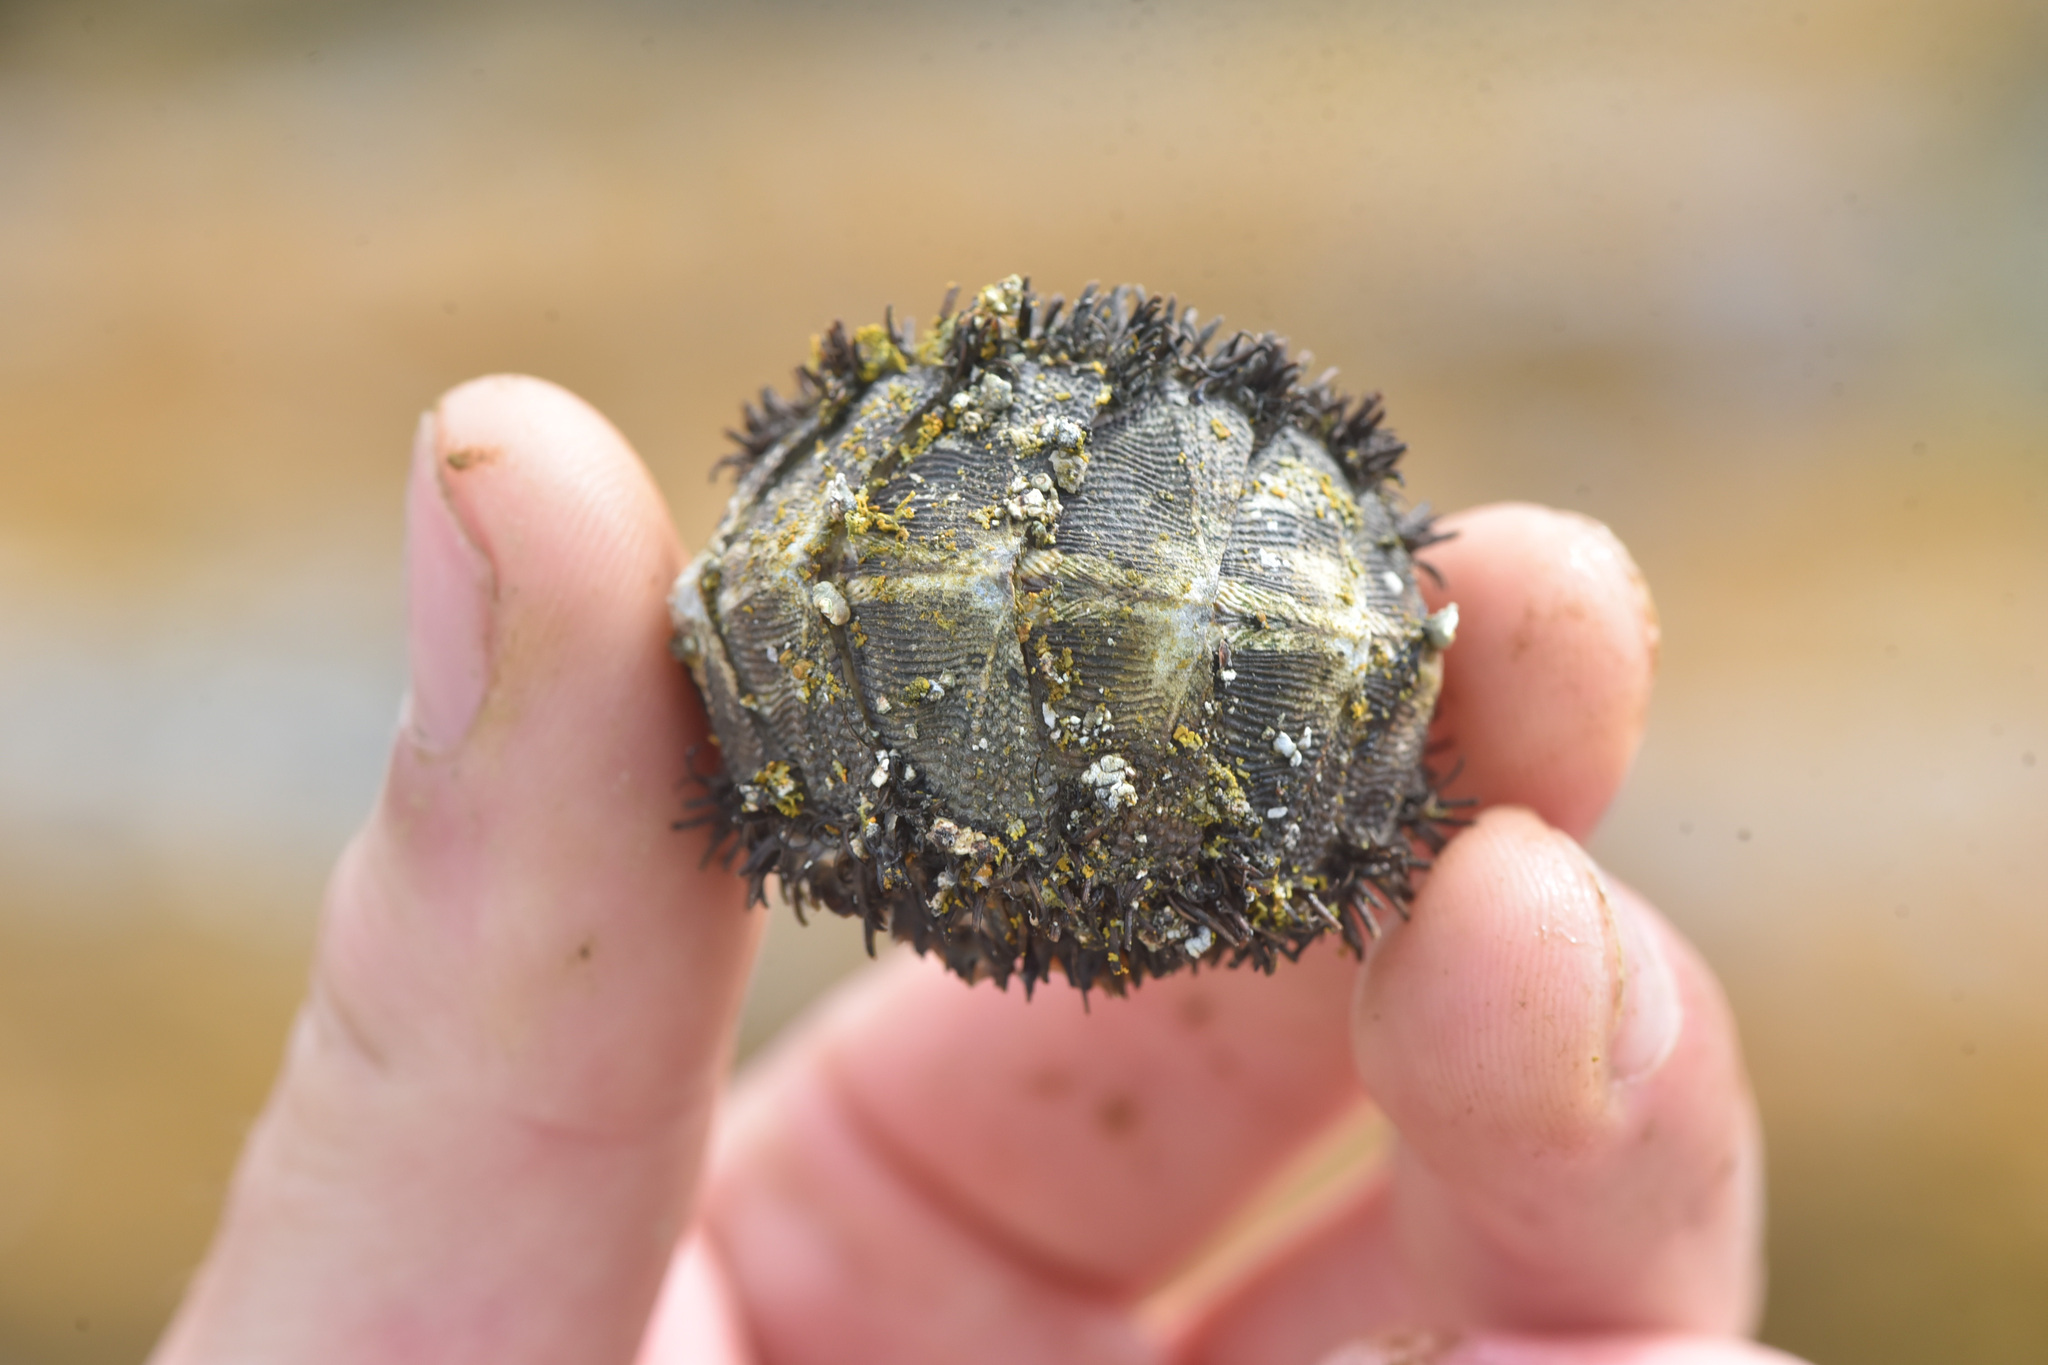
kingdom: Animalia
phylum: Mollusca
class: Polyplacophora
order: Chitonida
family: Mopaliidae
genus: Mopalia
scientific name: Mopalia muscosa
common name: Mossy chiton
